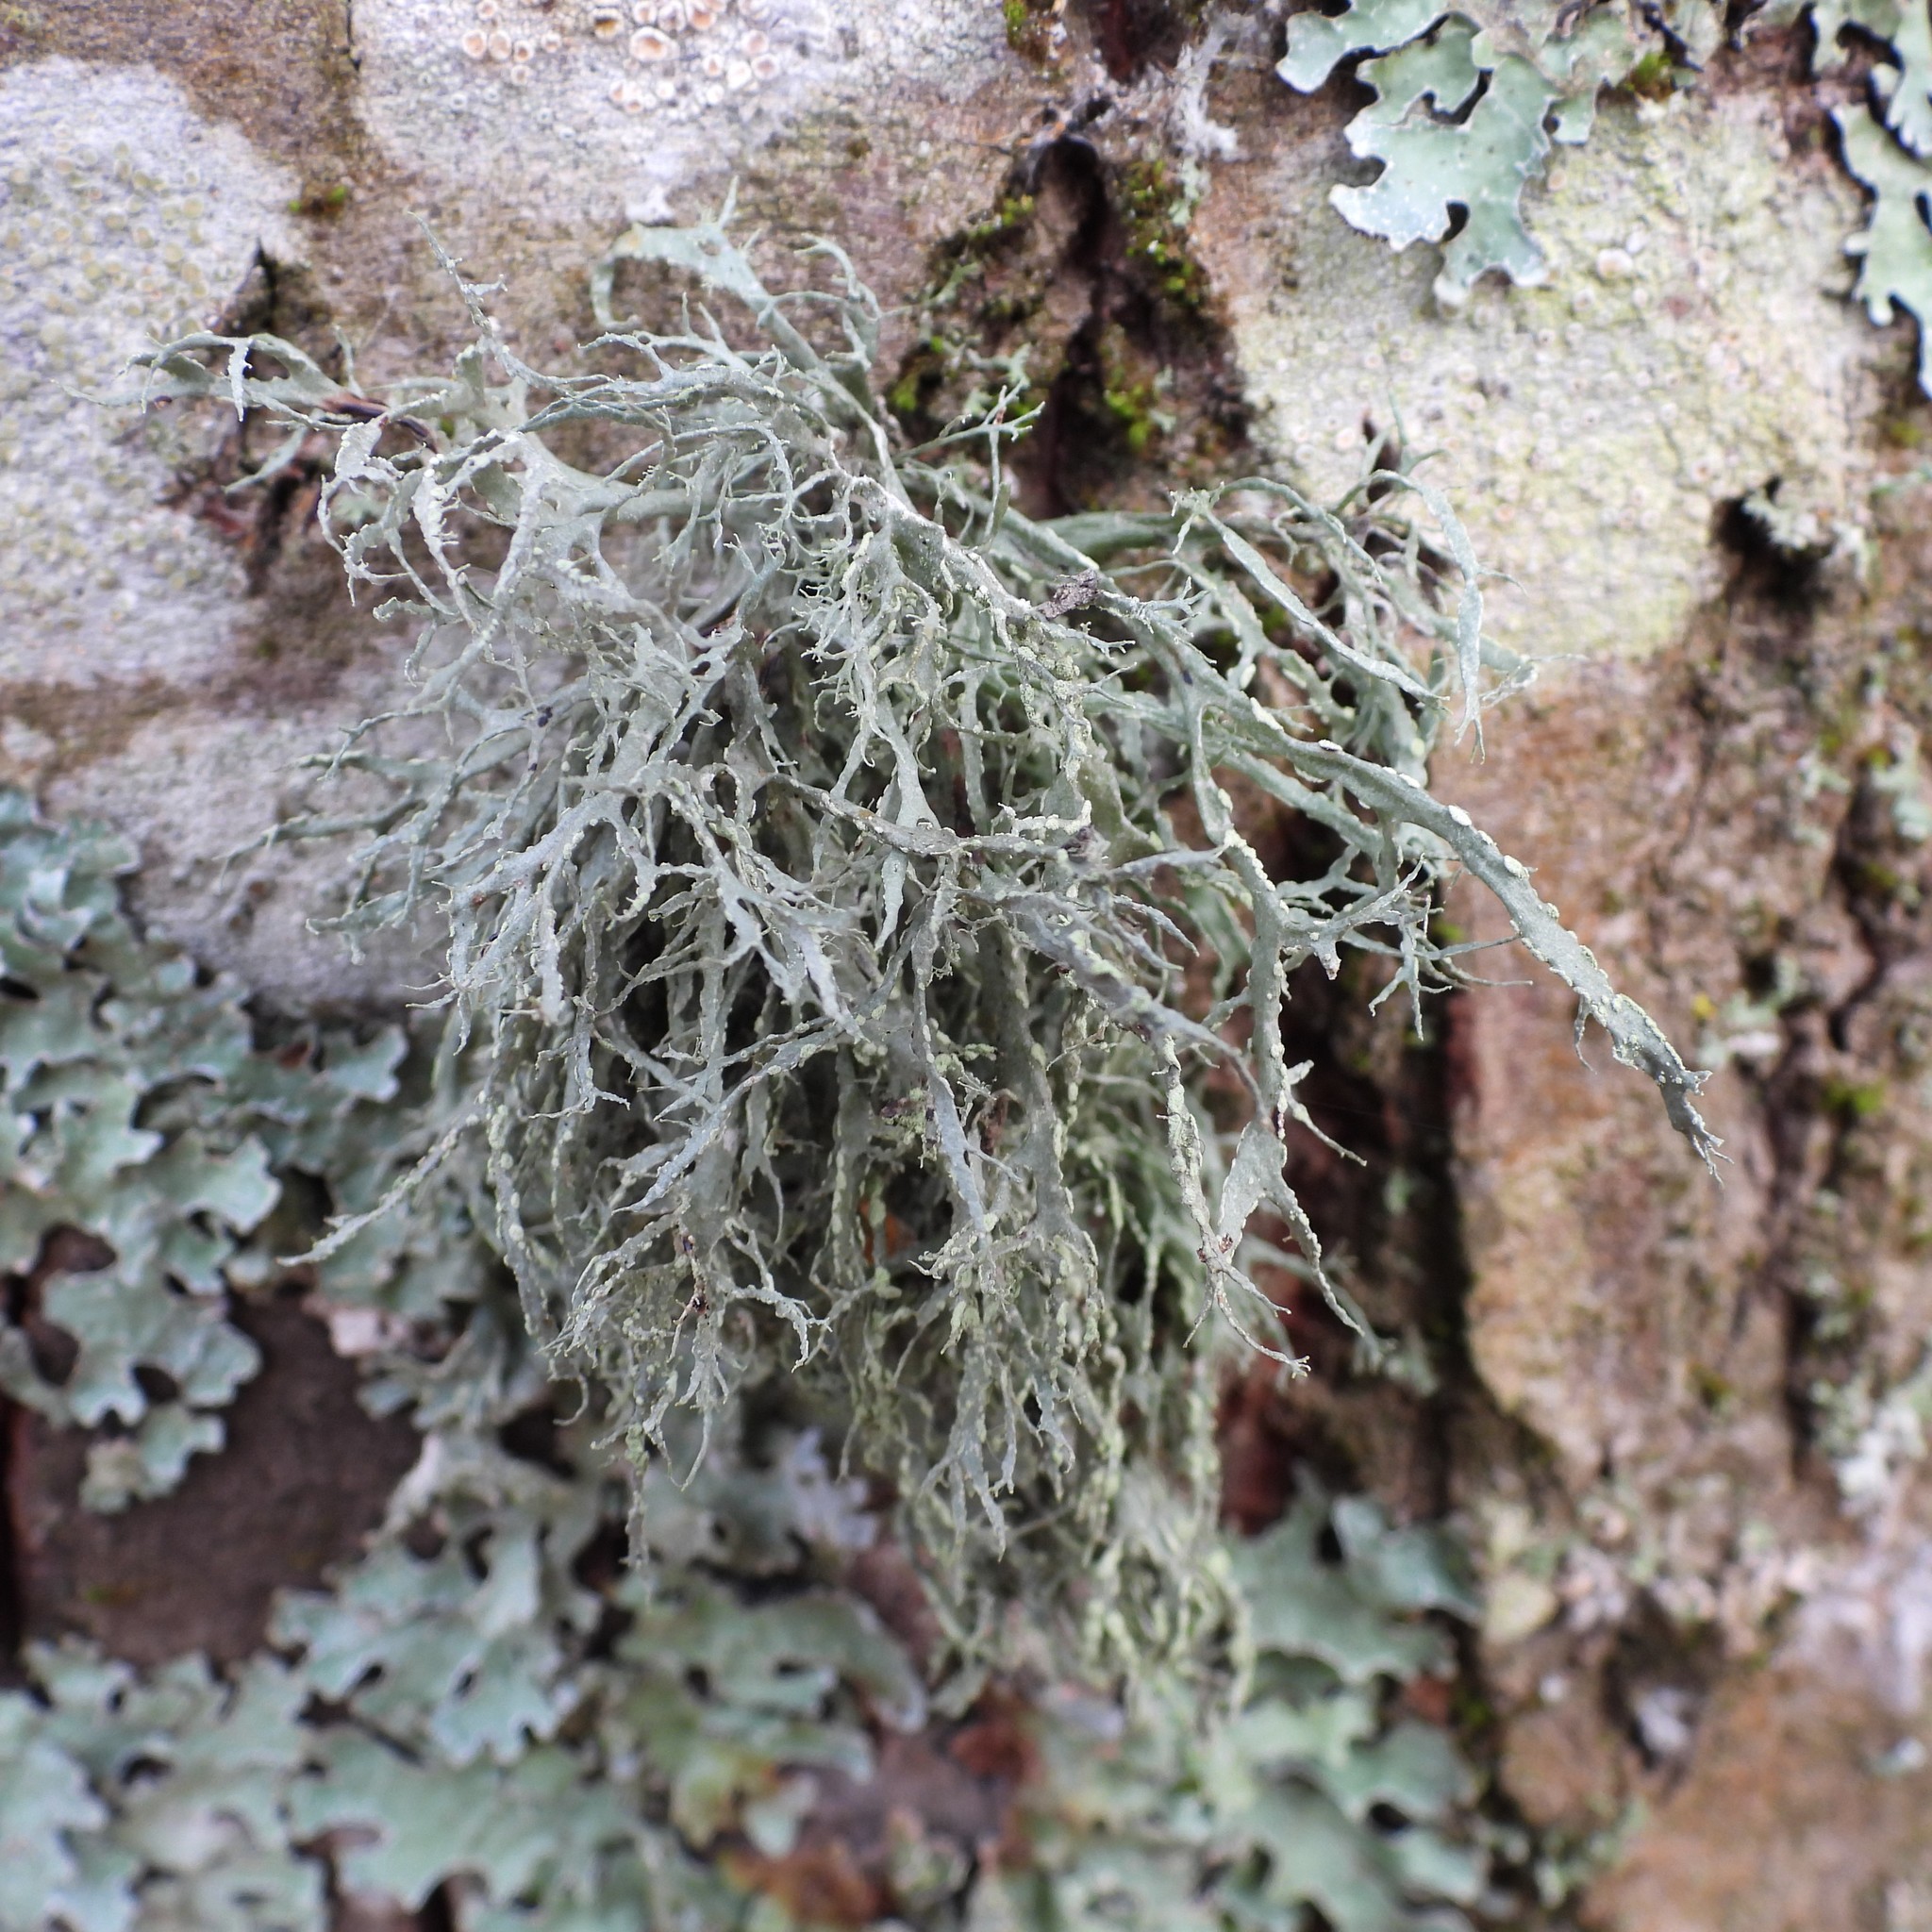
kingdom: Fungi
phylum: Ascomycota
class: Lecanoromycetes
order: Lecanorales
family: Ramalinaceae
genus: Ramalina
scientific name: Ramalina farinacea
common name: Farinose cartilage lichen
